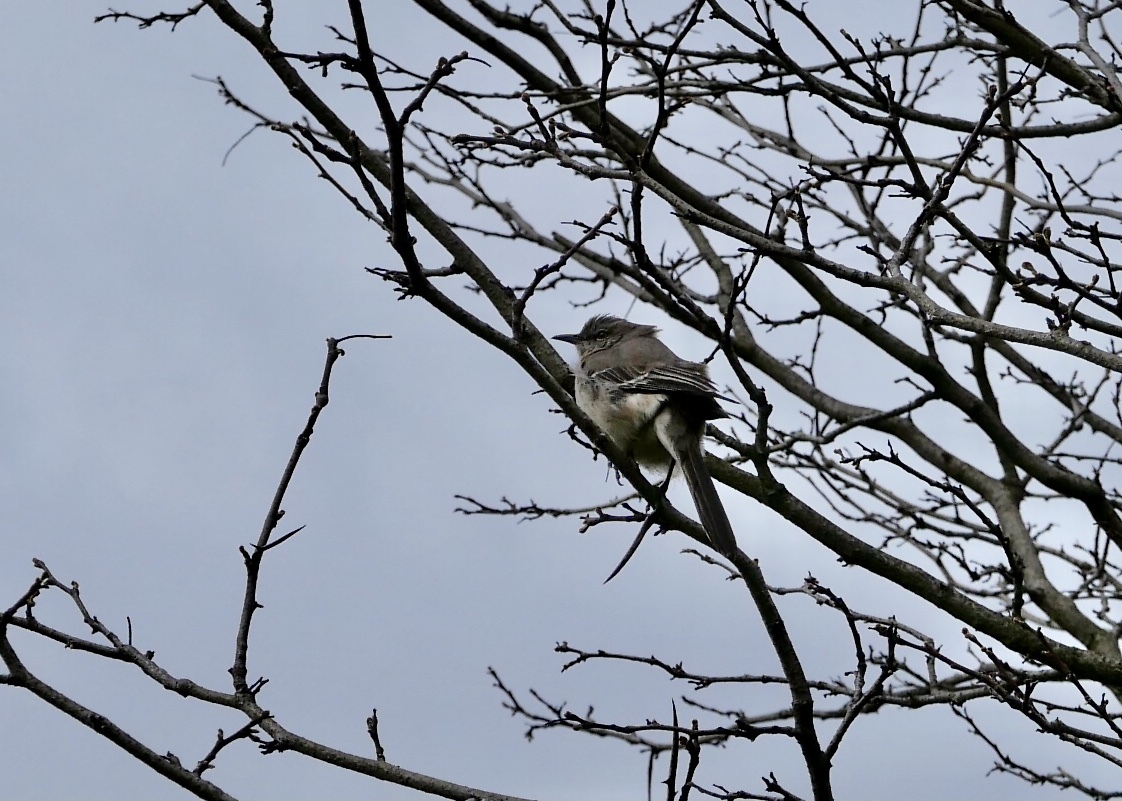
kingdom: Animalia
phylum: Chordata
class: Aves
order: Passeriformes
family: Mimidae
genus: Mimus
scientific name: Mimus polyglottos
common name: Northern mockingbird
